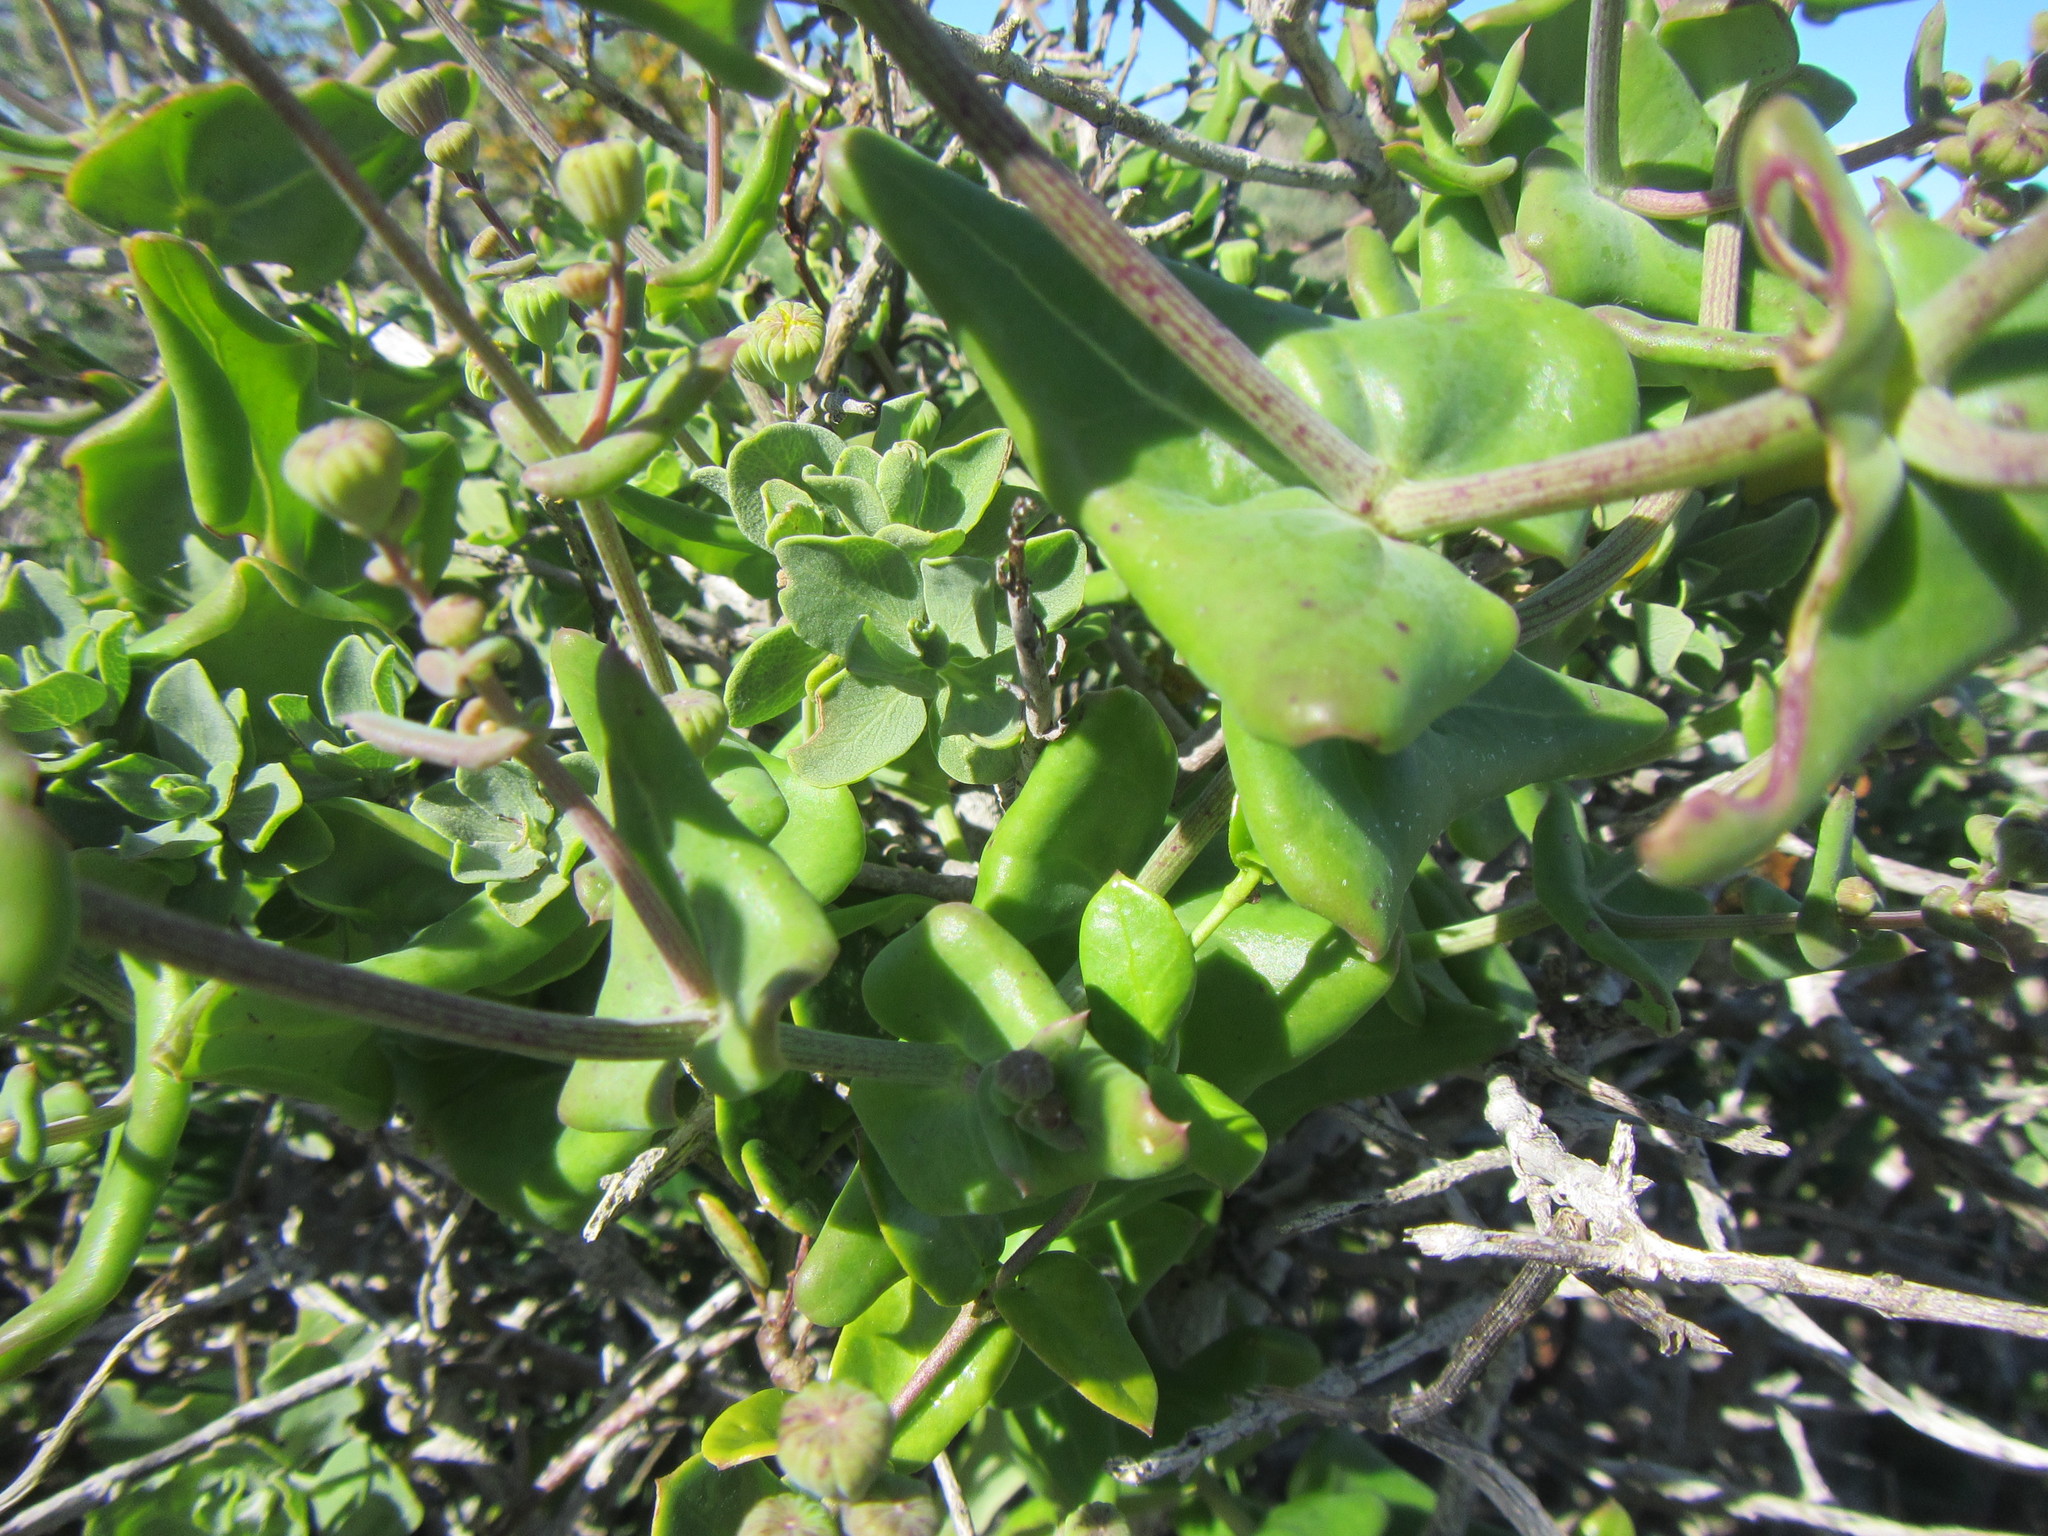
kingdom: Plantae
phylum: Tracheophyta
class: Magnoliopsida
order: Asterales
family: Asteraceae
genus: Othonna
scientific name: Othonna undulosa
